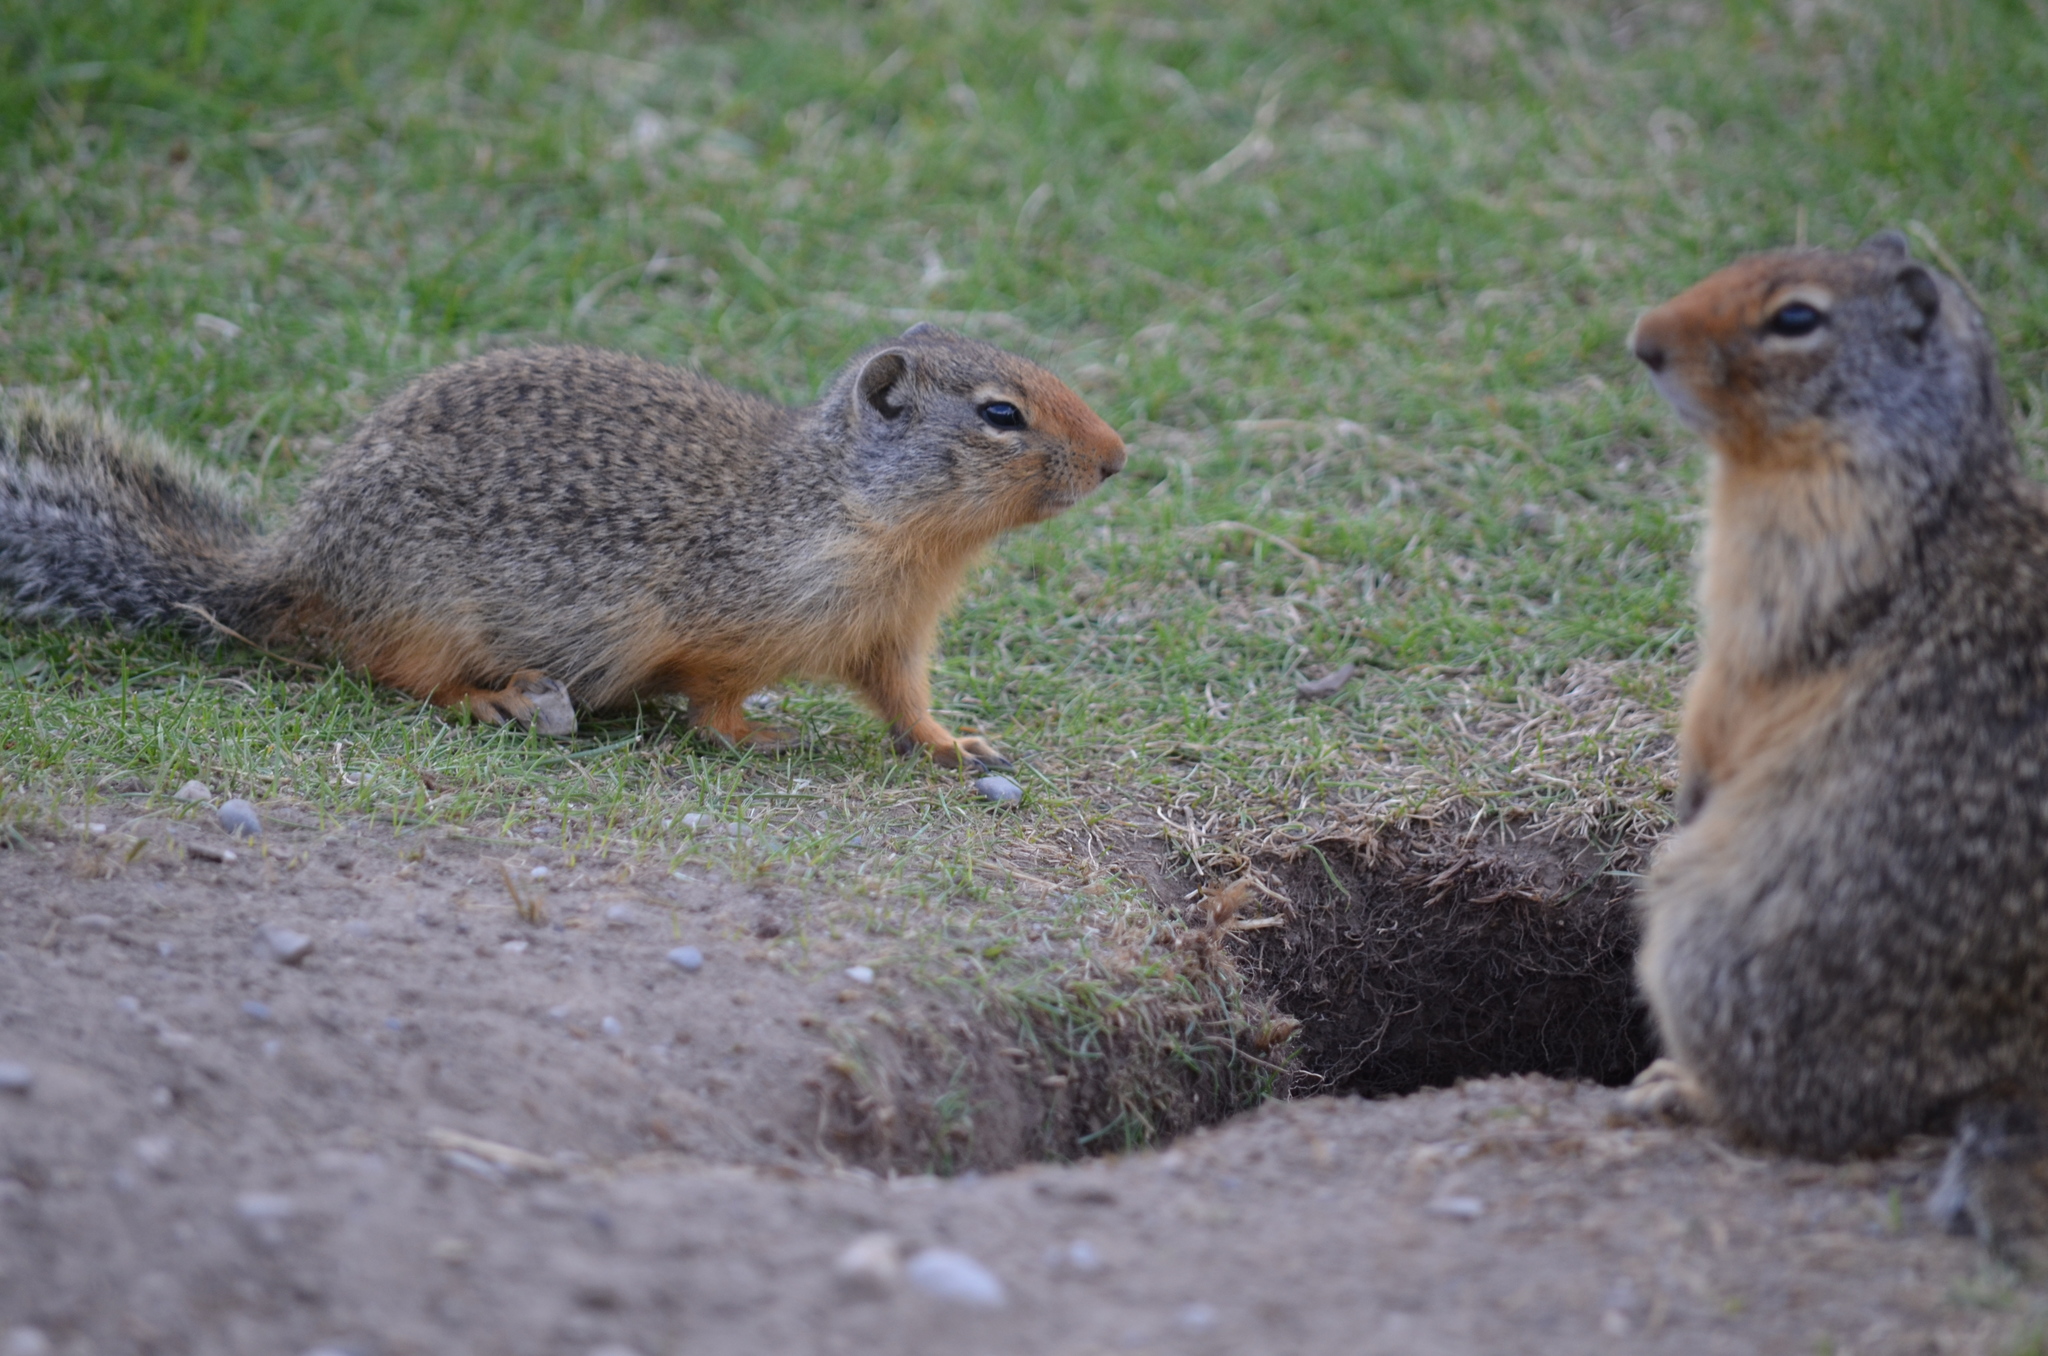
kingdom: Animalia
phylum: Chordata
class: Mammalia
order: Rodentia
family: Sciuridae
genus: Urocitellus
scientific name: Urocitellus columbianus
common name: Columbian ground squirrel
